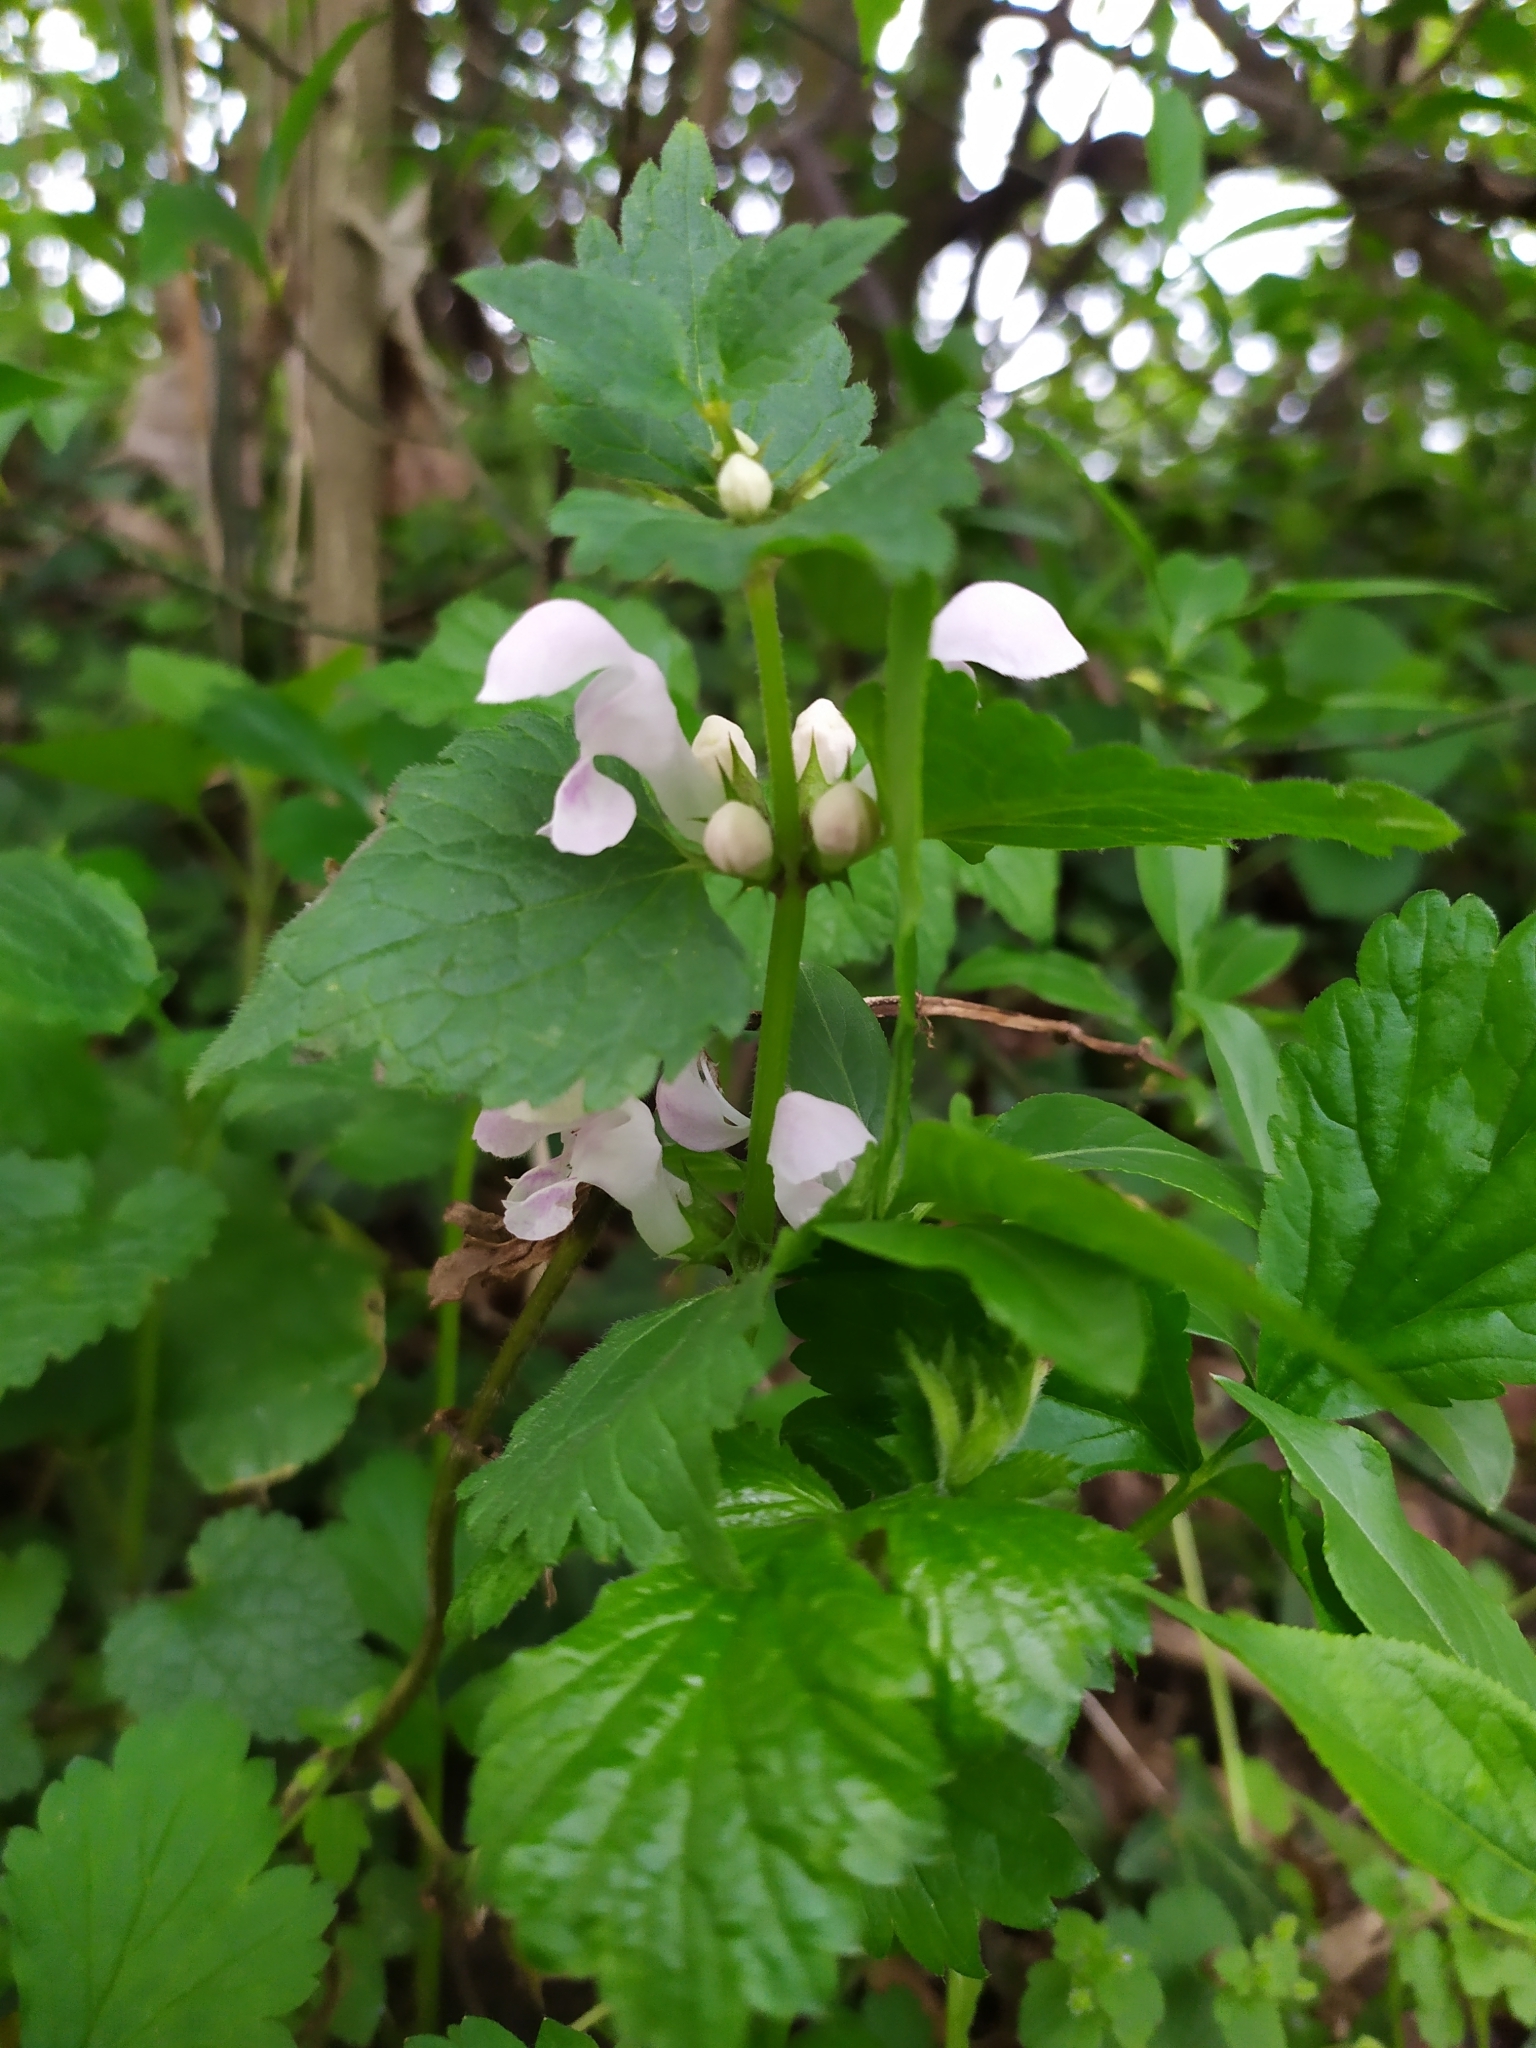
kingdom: Plantae
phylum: Tracheophyta
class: Magnoliopsida
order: Lamiales
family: Lamiaceae
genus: Lamium
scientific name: Lamium maculatum
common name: Spotted dead-nettle
